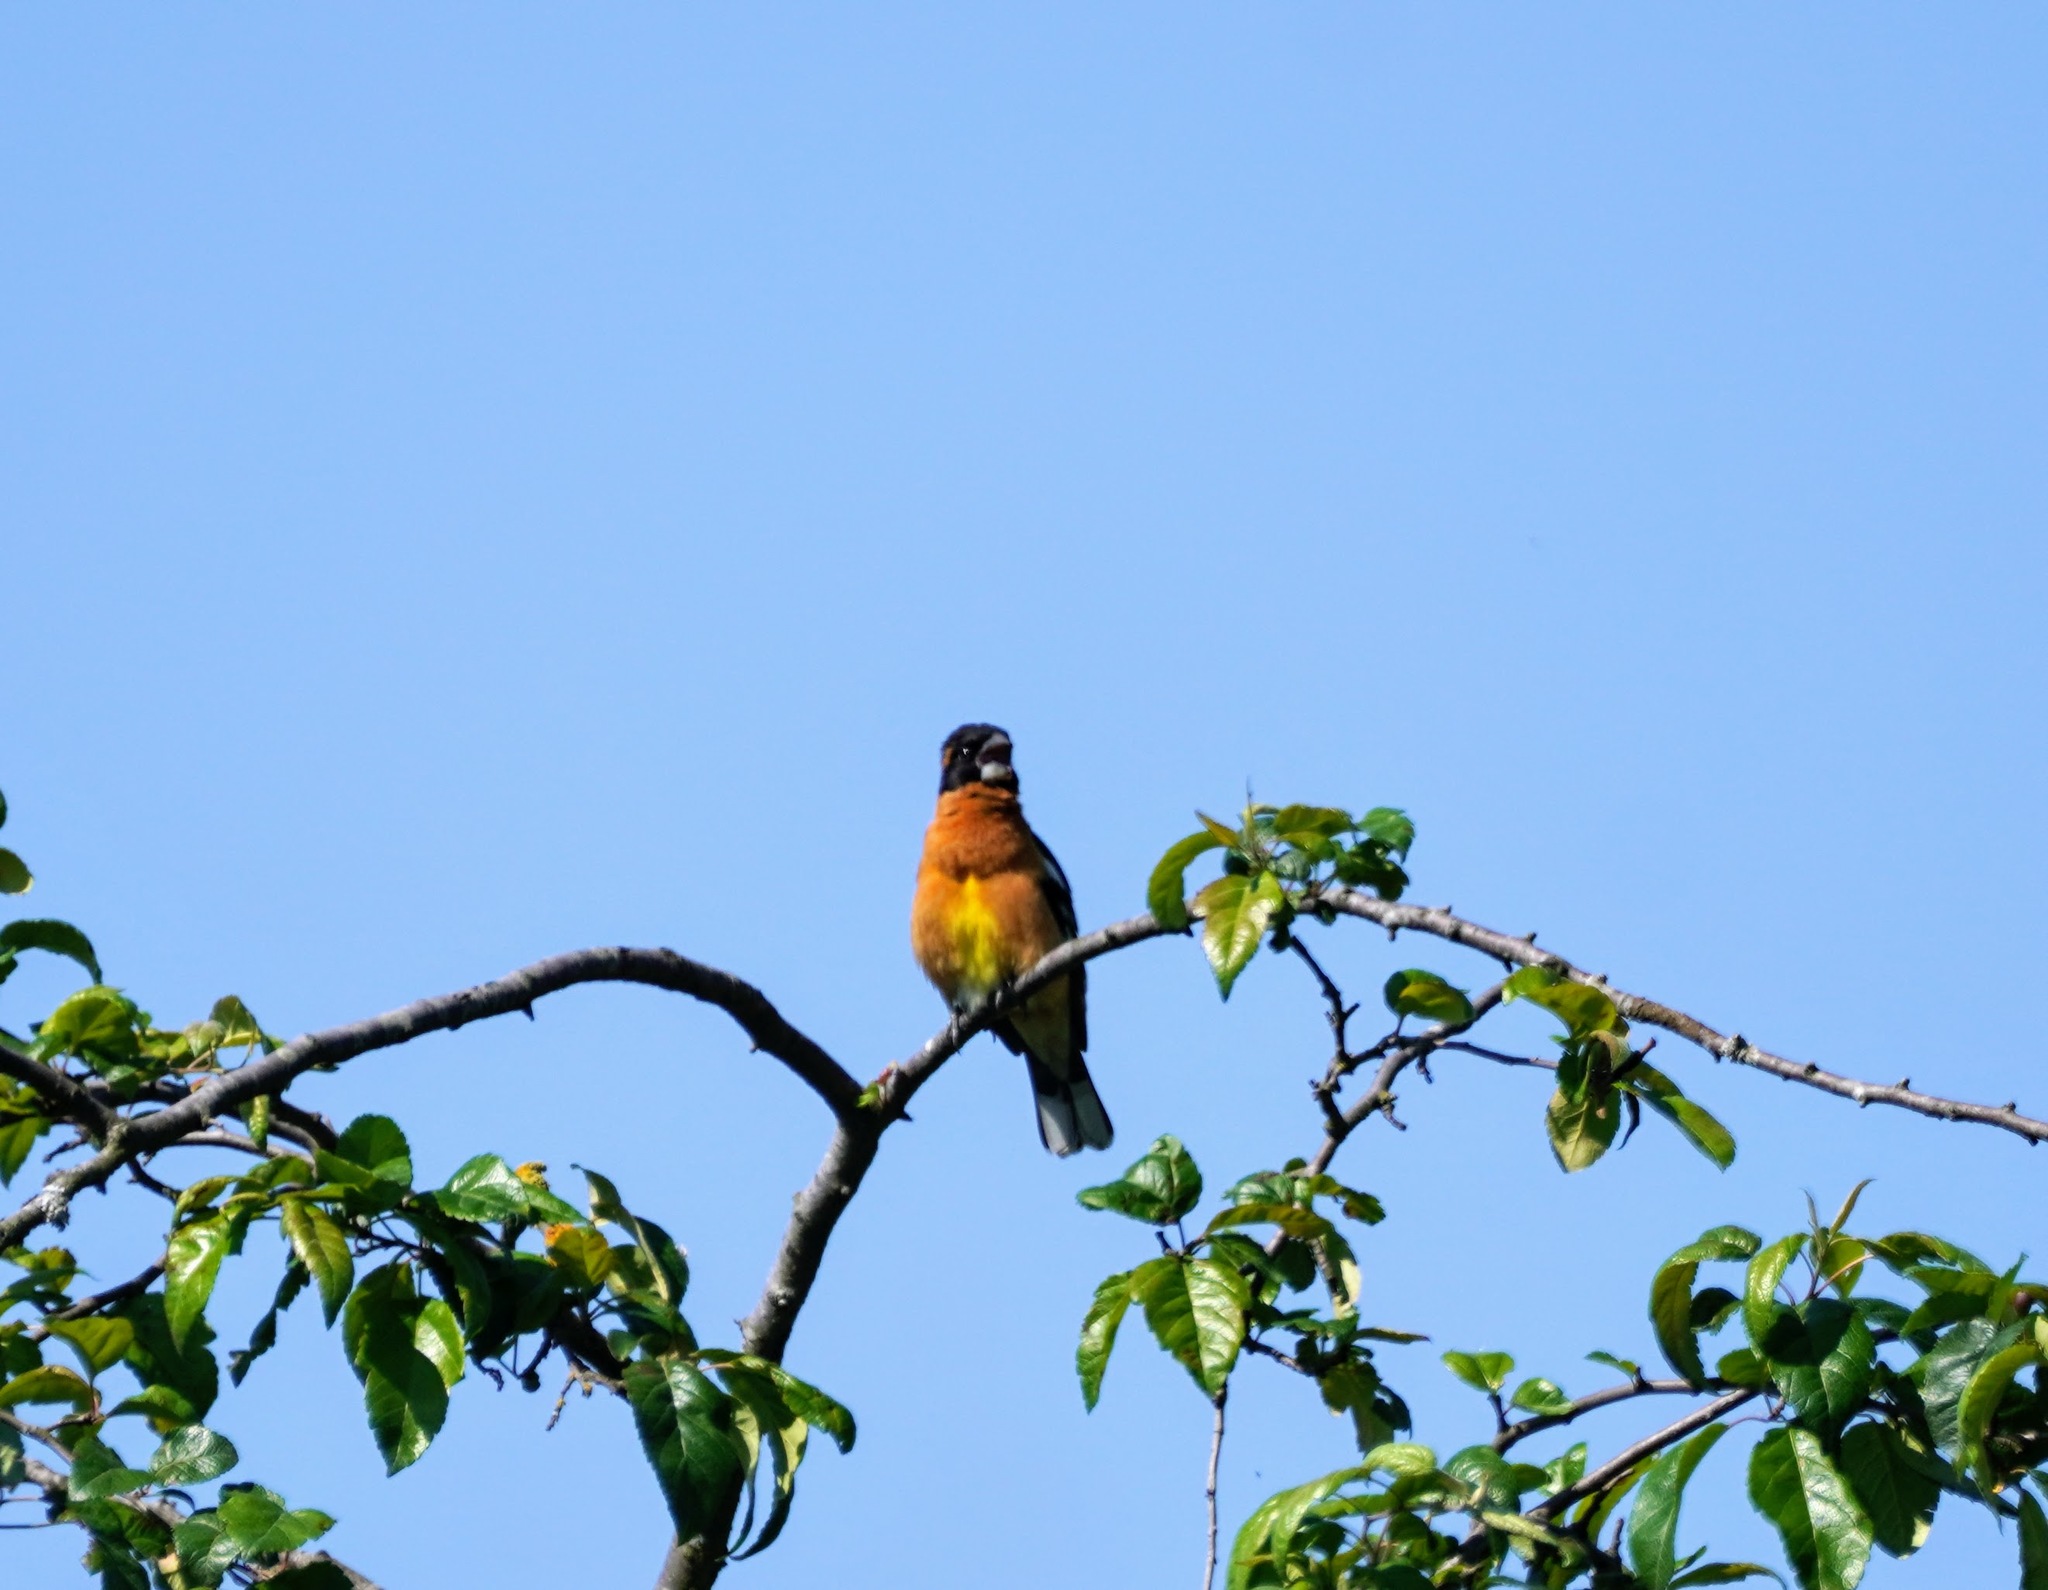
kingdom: Animalia
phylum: Chordata
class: Aves
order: Passeriformes
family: Cardinalidae
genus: Pheucticus
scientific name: Pheucticus melanocephalus
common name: Black-headed grosbeak
